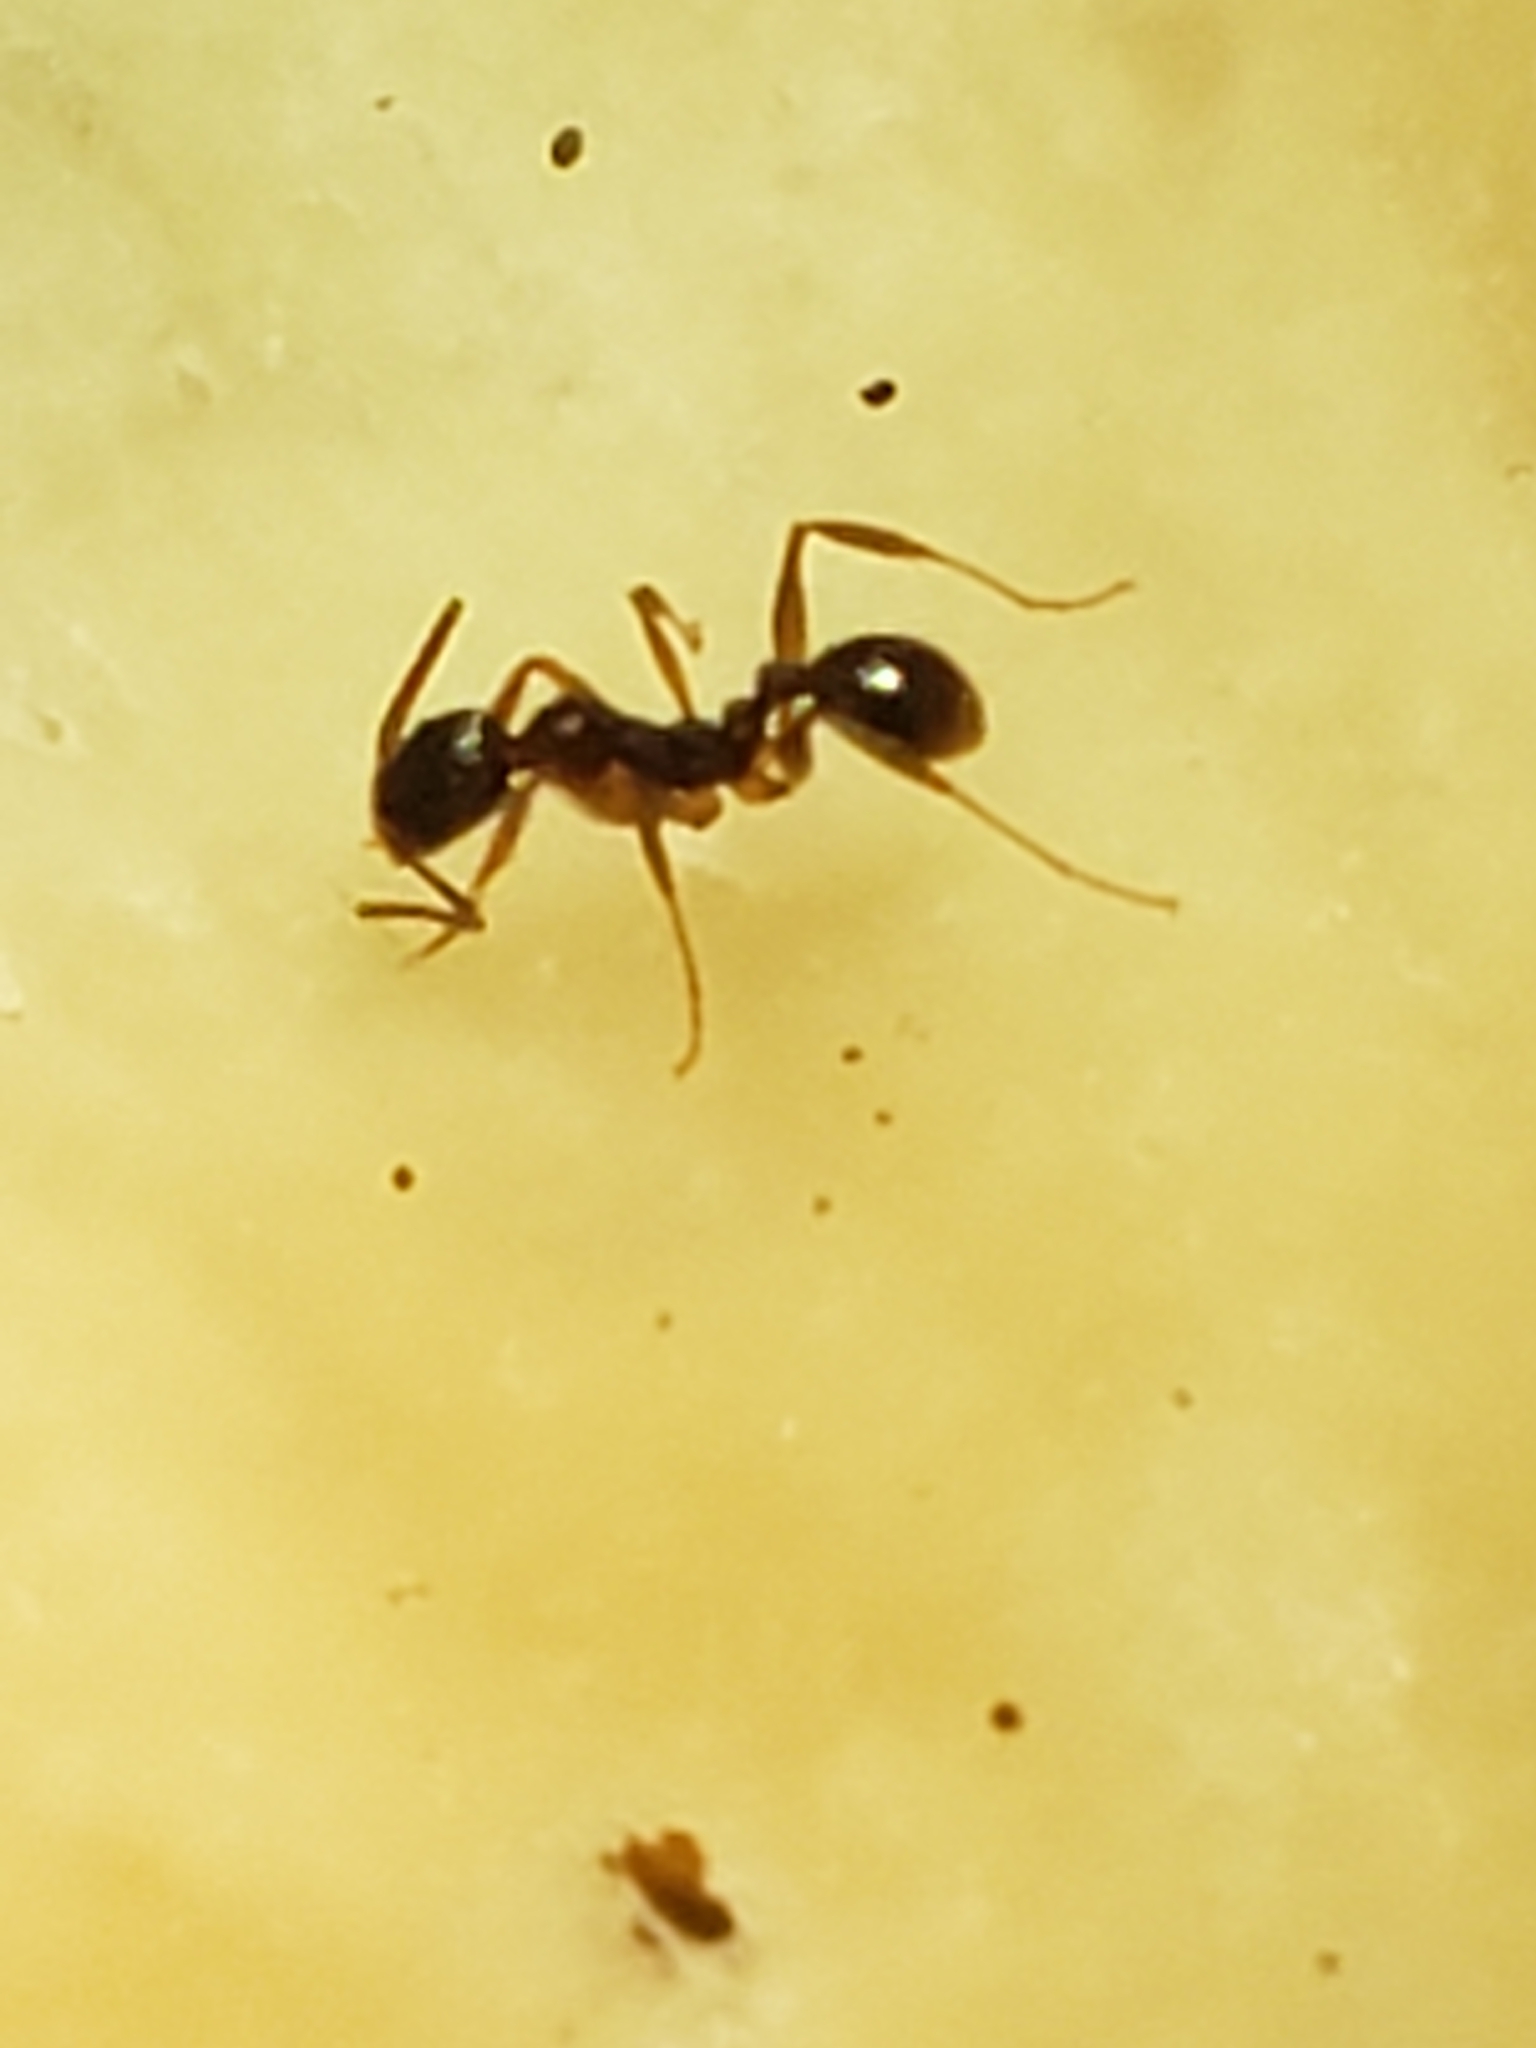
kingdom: Animalia
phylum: Arthropoda
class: Insecta
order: Hymenoptera
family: Formicidae
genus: Aphaenogaster
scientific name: Aphaenogaster rudis
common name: Winnow ant
